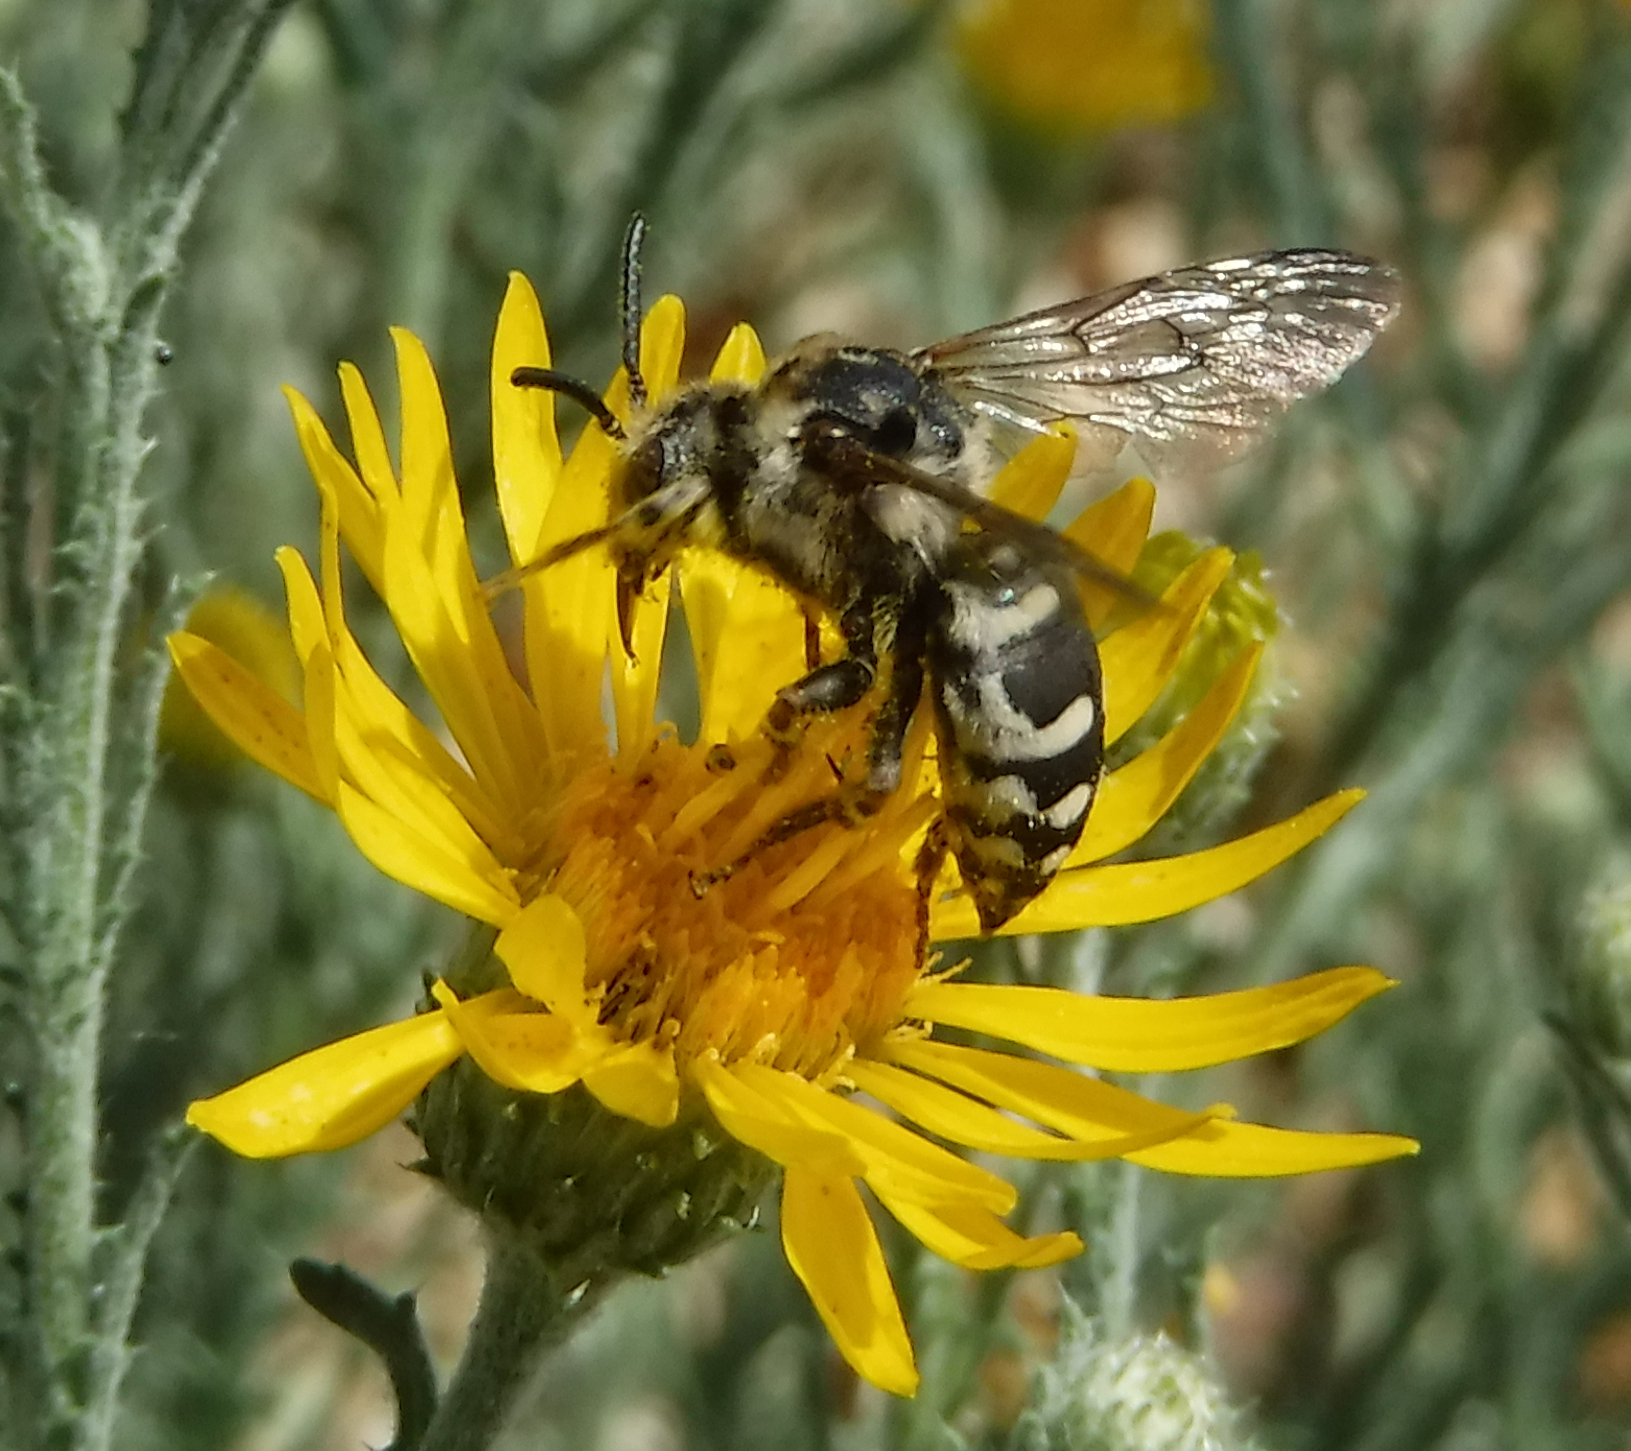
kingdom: Animalia
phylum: Arthropoda
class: Insecta
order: Hymenoptera
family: Apidae
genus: Brachymelecta
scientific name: Brachymelecta californica
